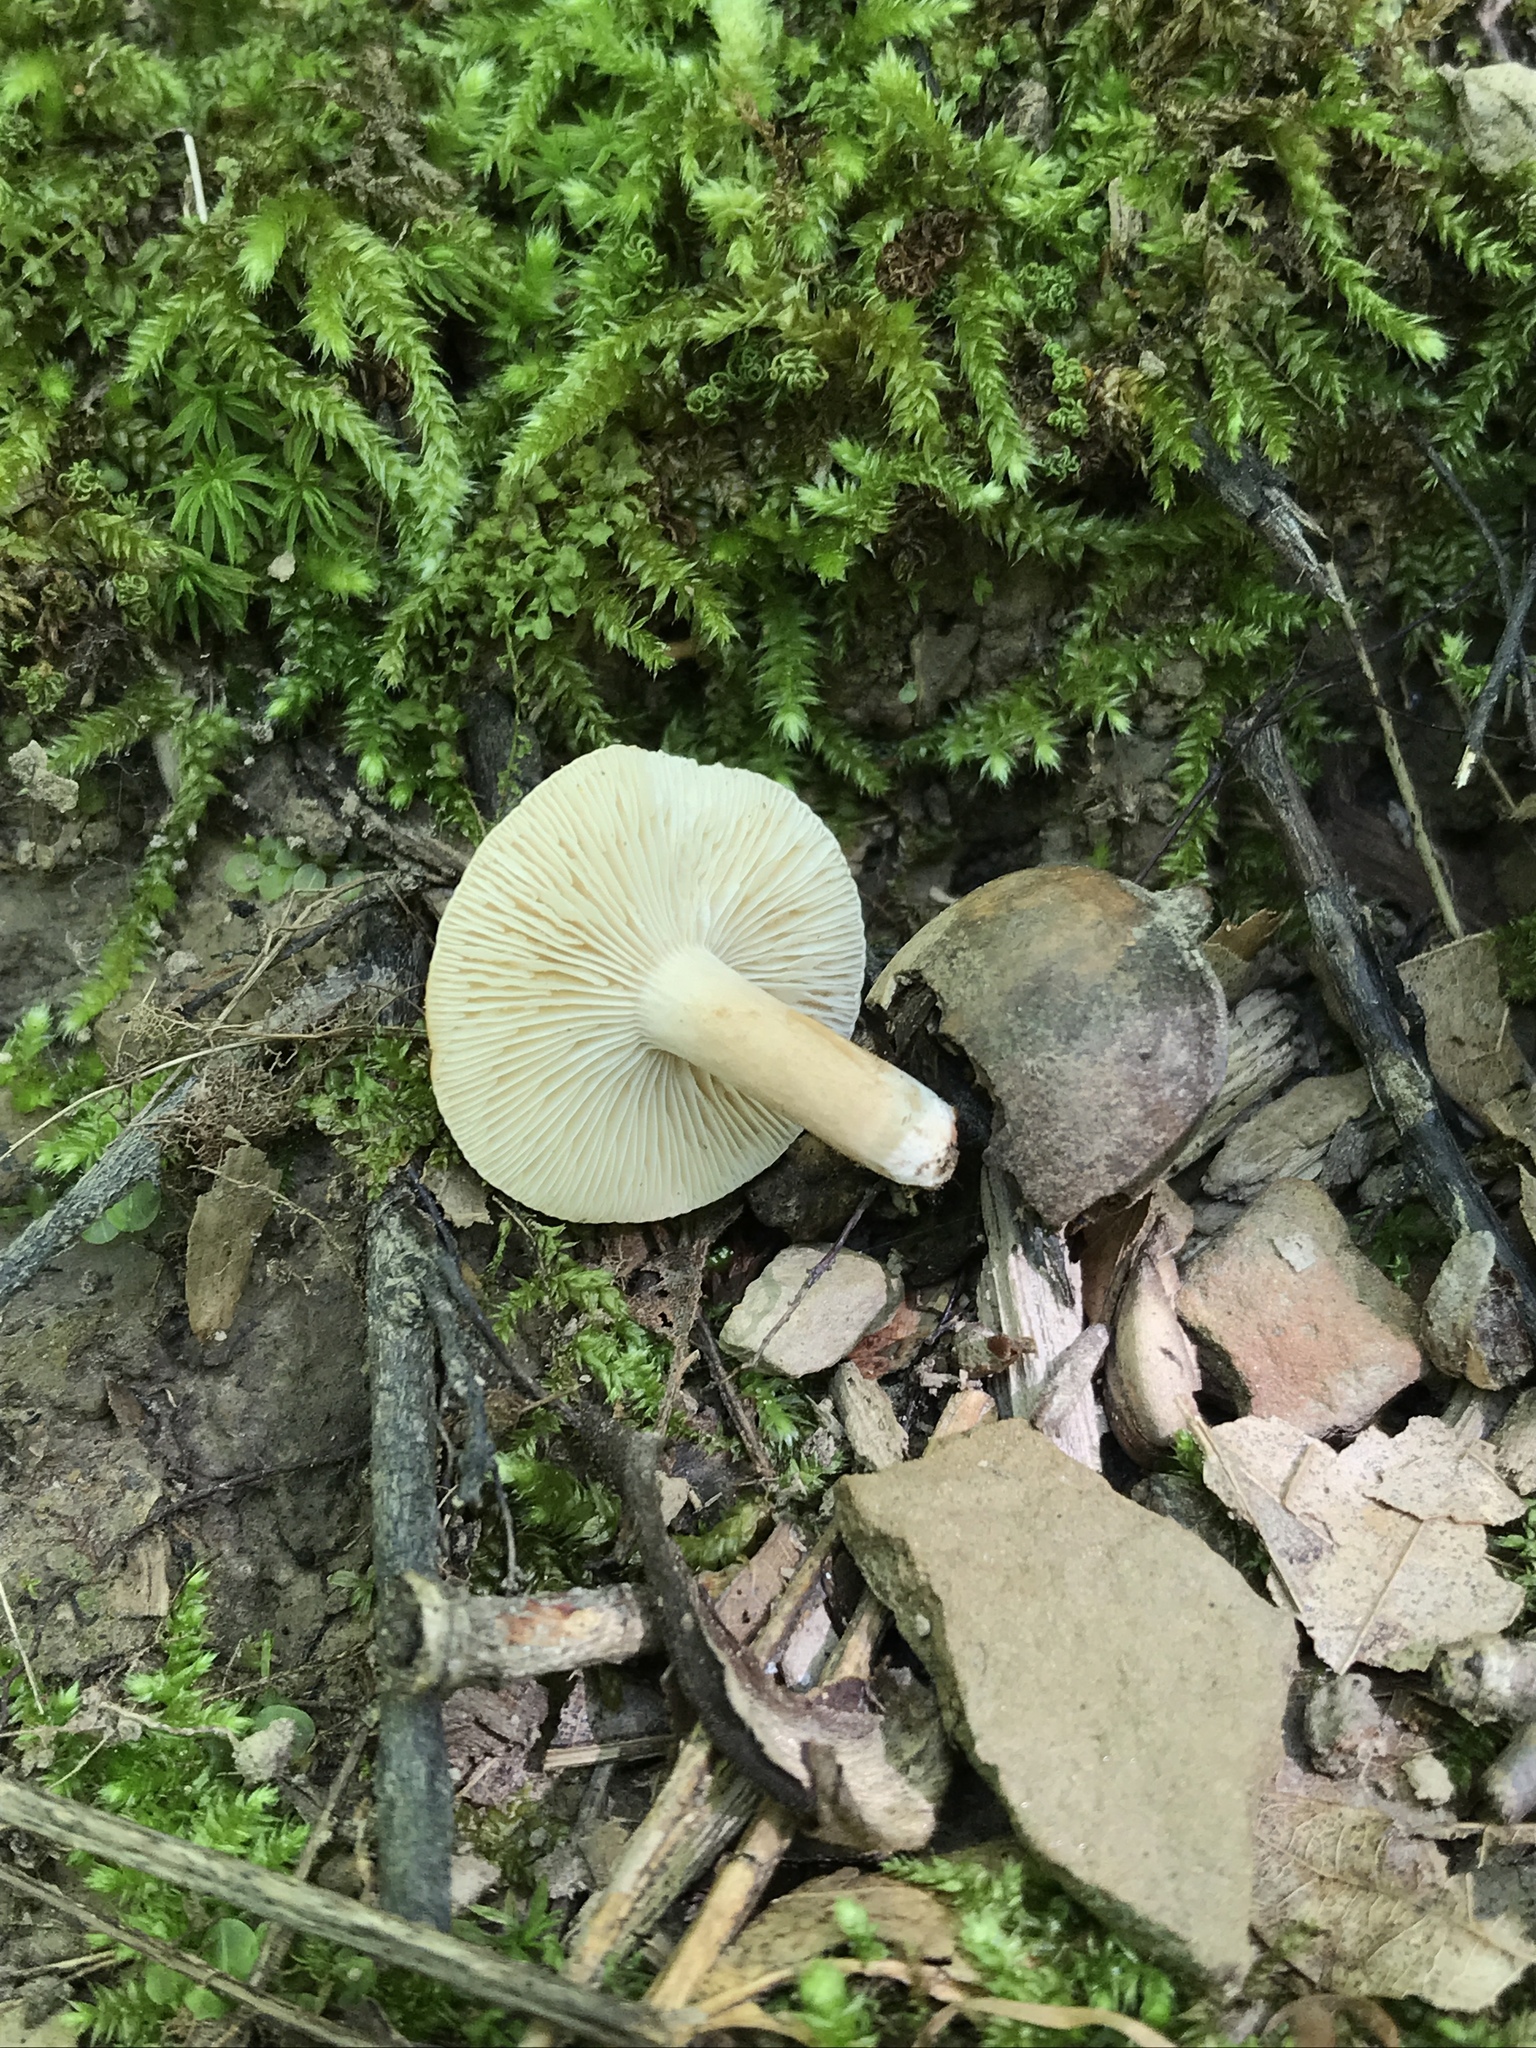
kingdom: Fungi
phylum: Basidiomycota
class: Agaricomycetes
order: Russulales
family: Russulaceae
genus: Lactifluus
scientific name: Lactifluus volemus
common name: Fishy milkcap
